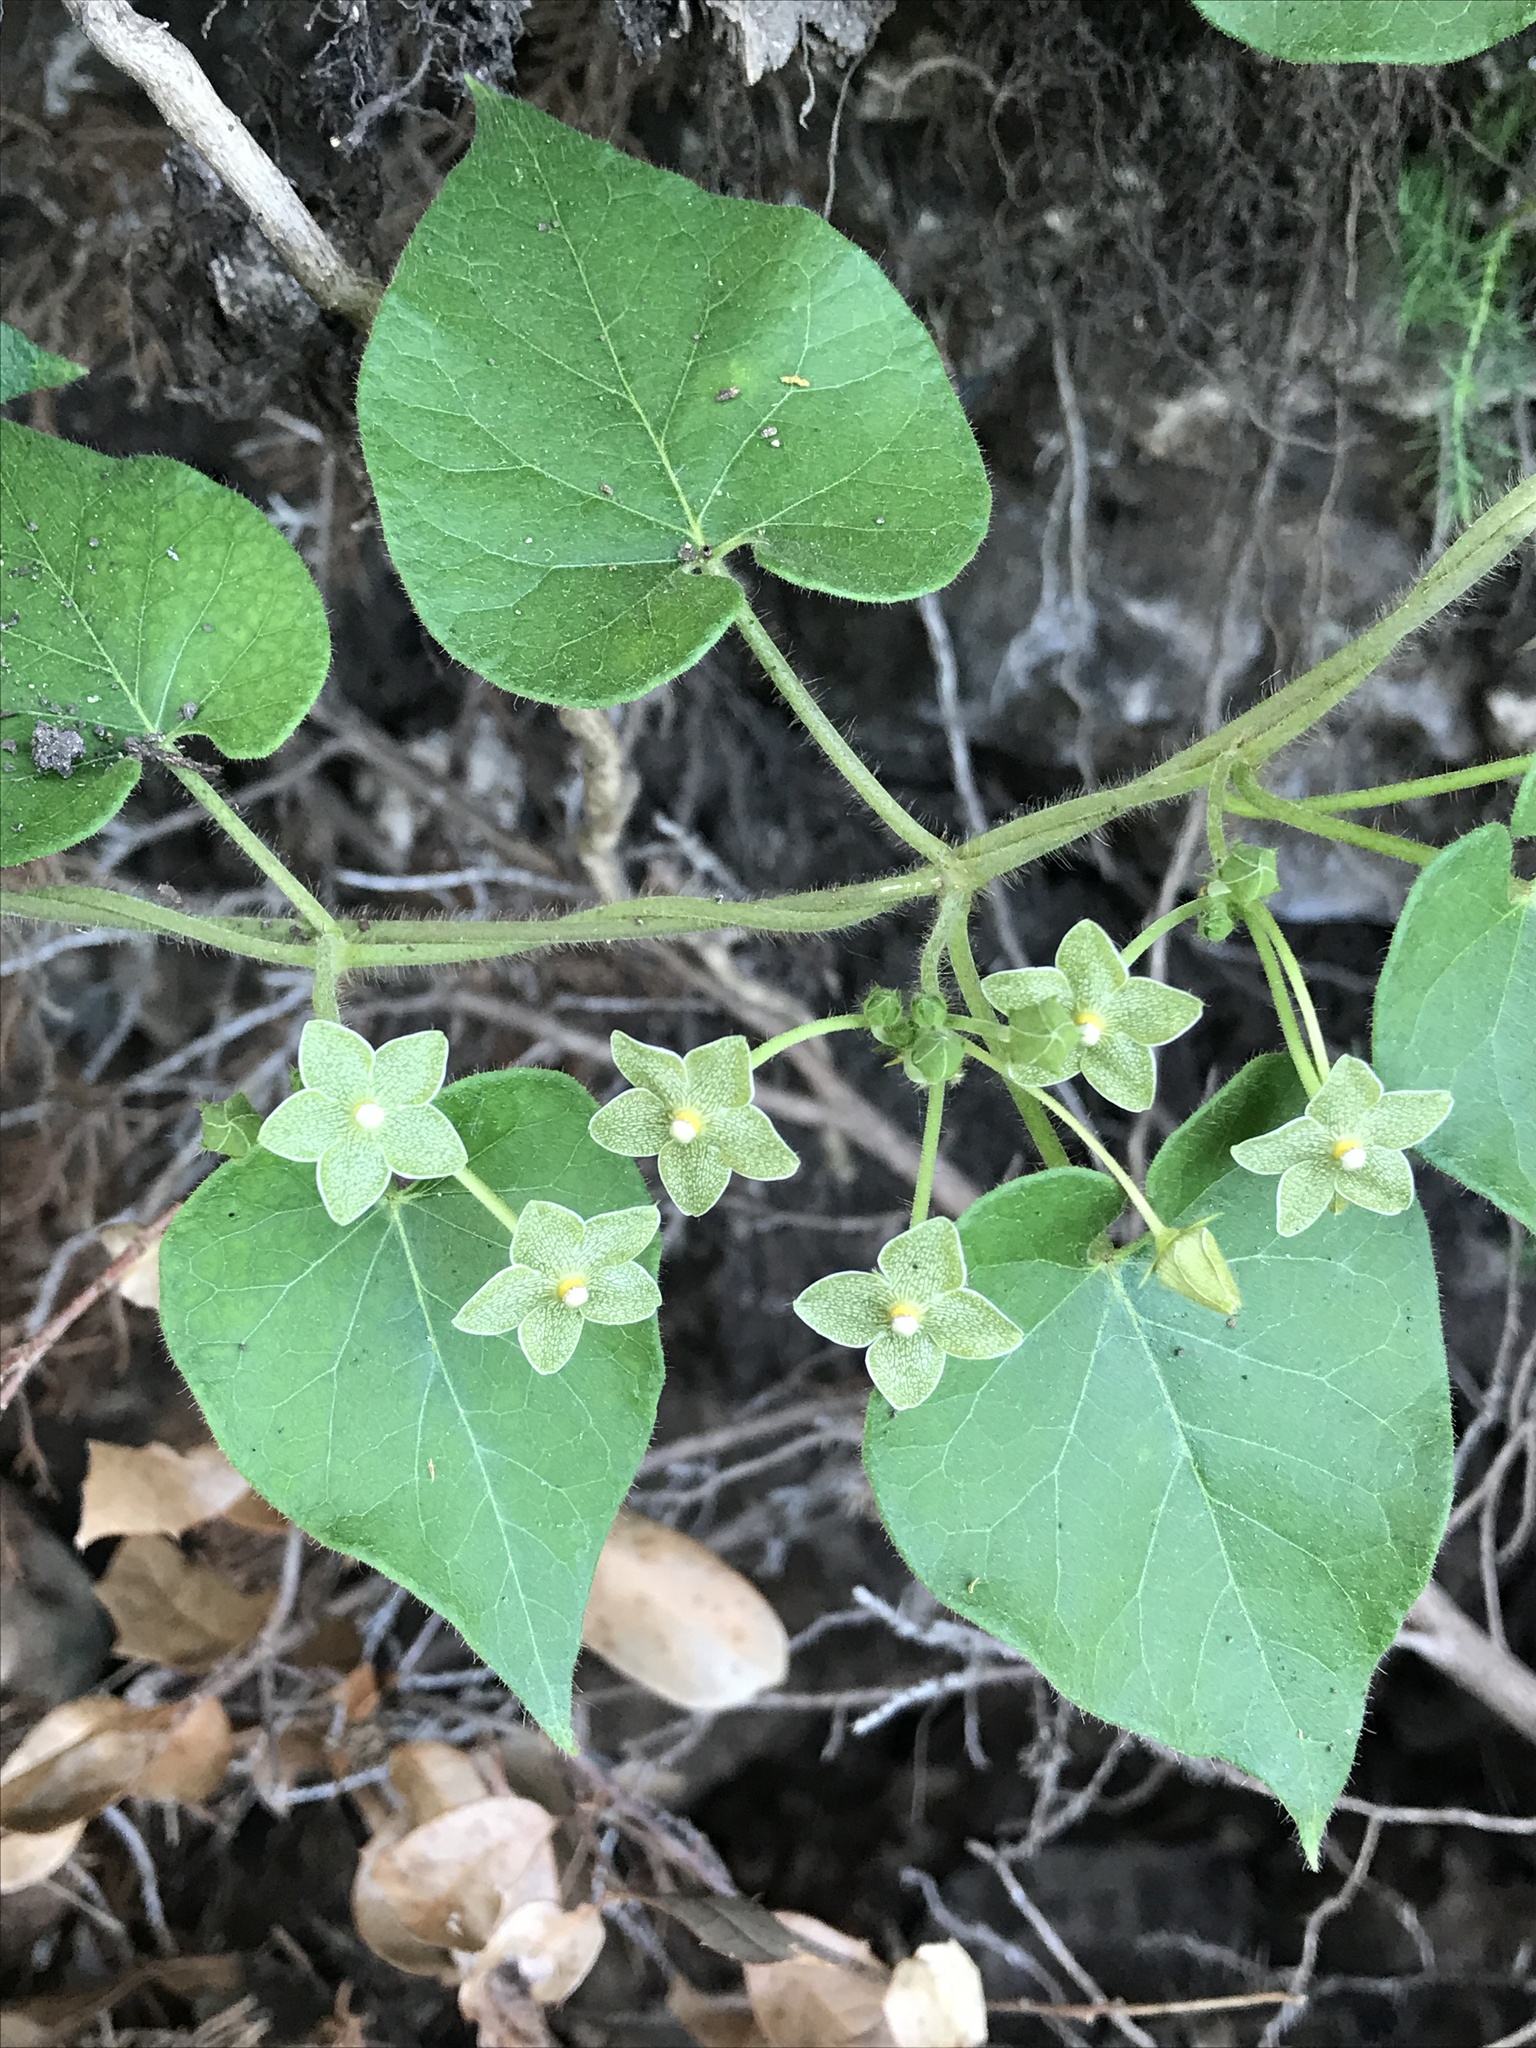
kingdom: Plantae
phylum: Tracheophyta
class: Magnoliopsida
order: Gentianales
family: Apocynaceae
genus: Dictyanthus
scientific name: Dictyanthus reticulatus
